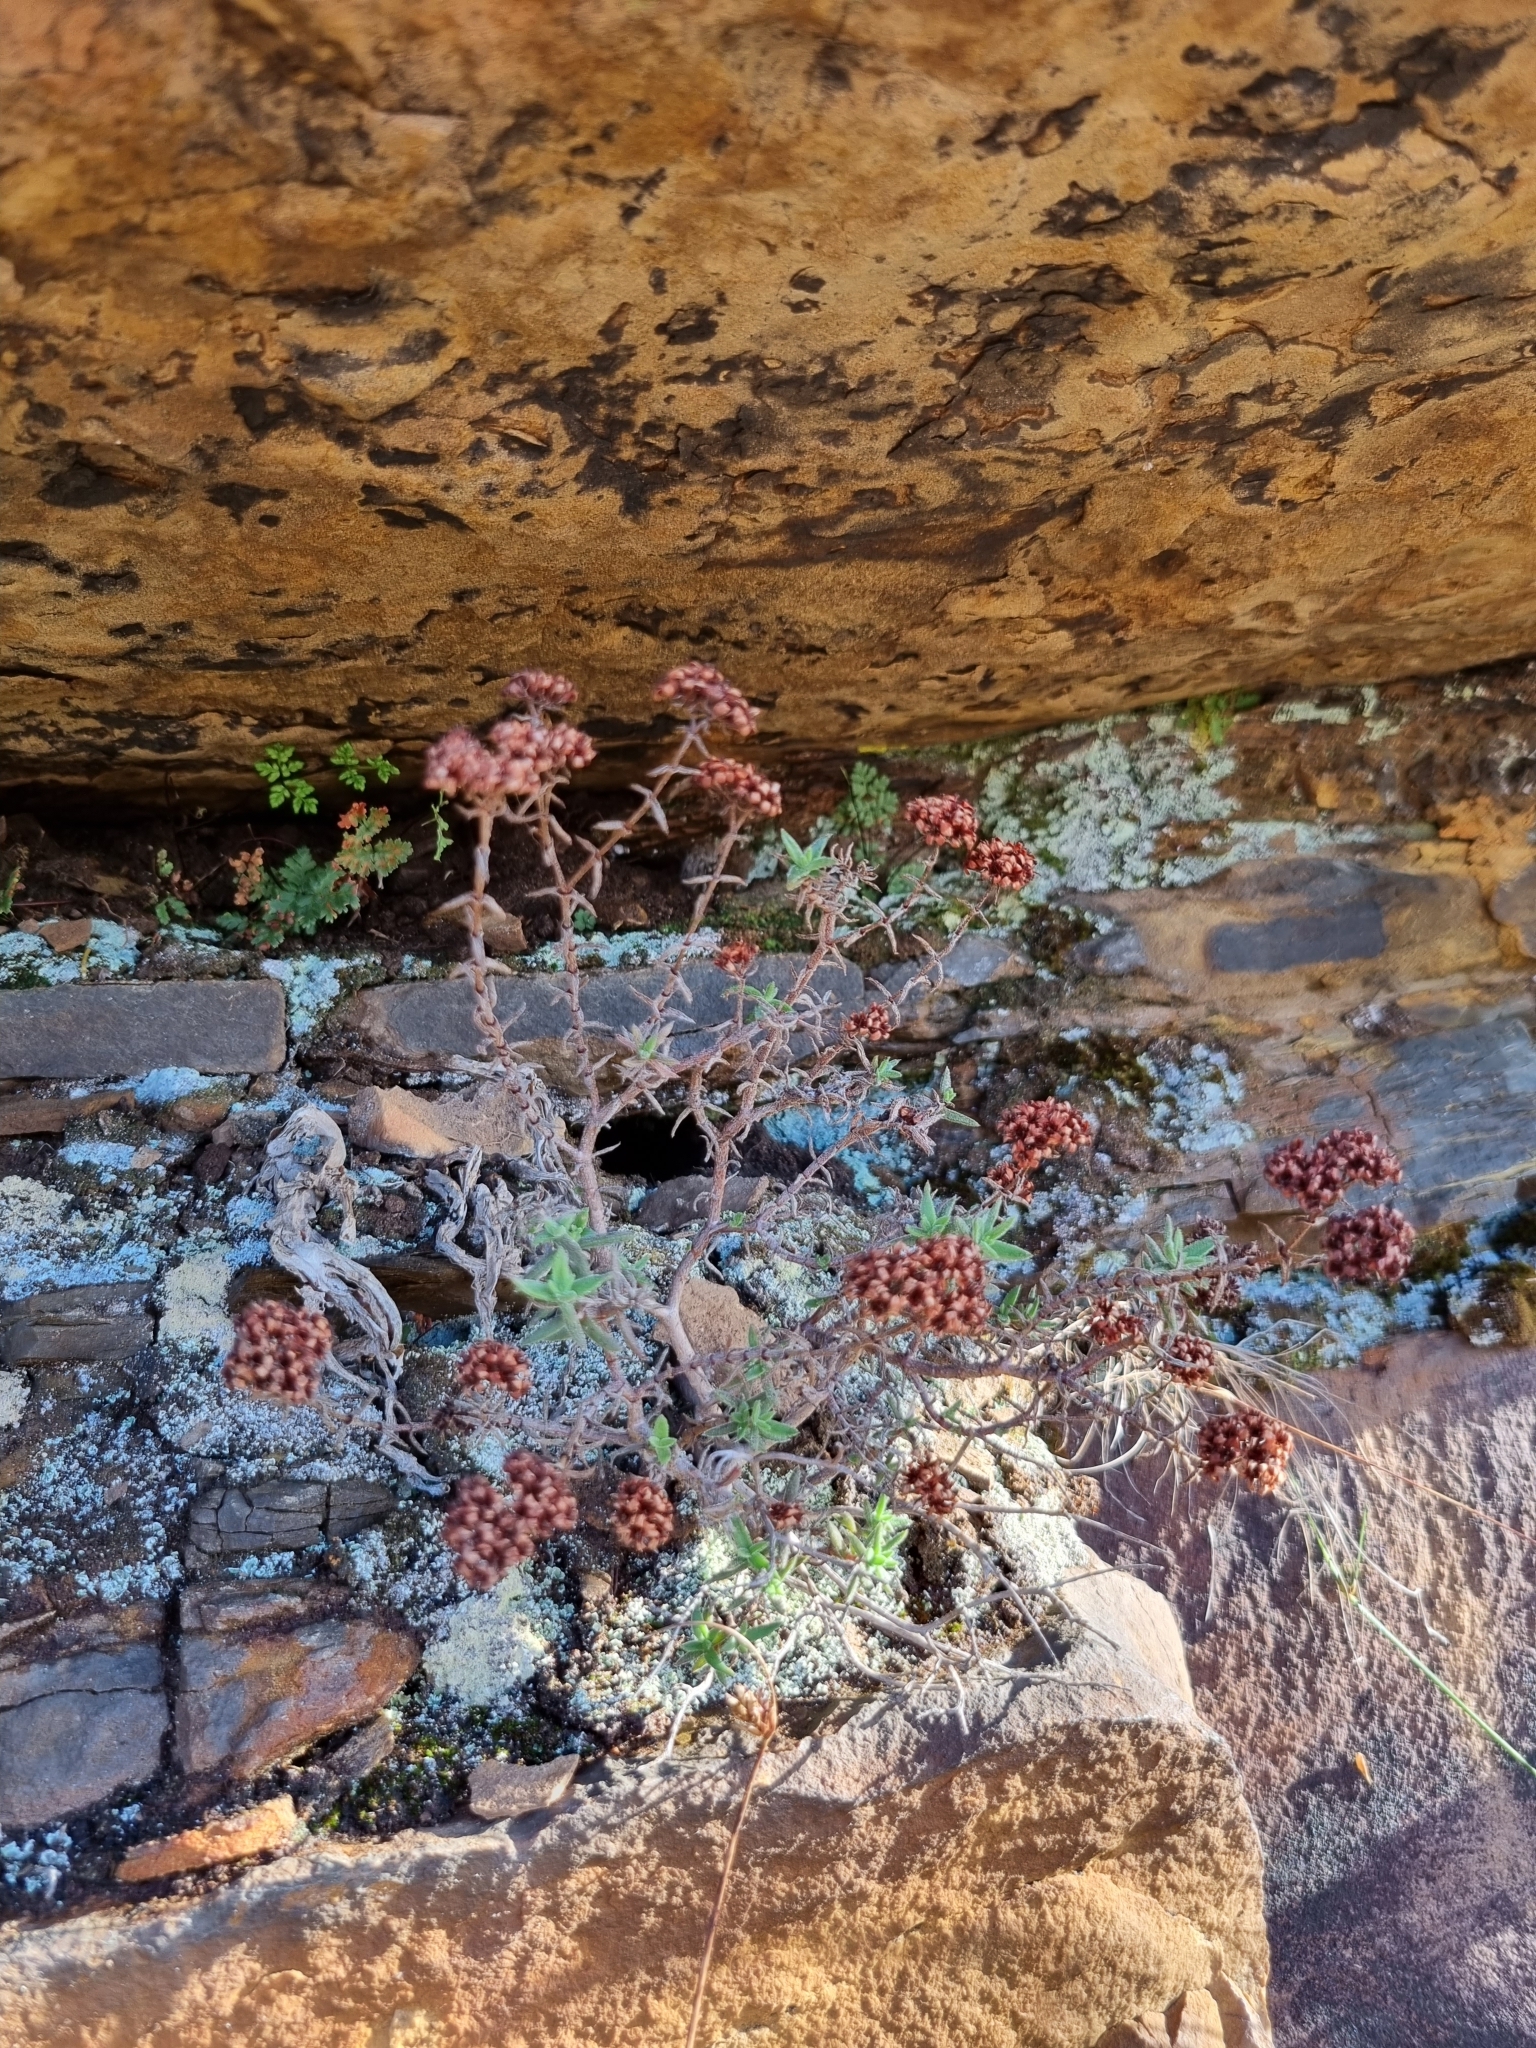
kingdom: Plantae
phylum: Tracheophyta
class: Magnoliopsida
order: Saxifragales
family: Crassulaceae
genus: Crassula
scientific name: Crassula pruinosa
